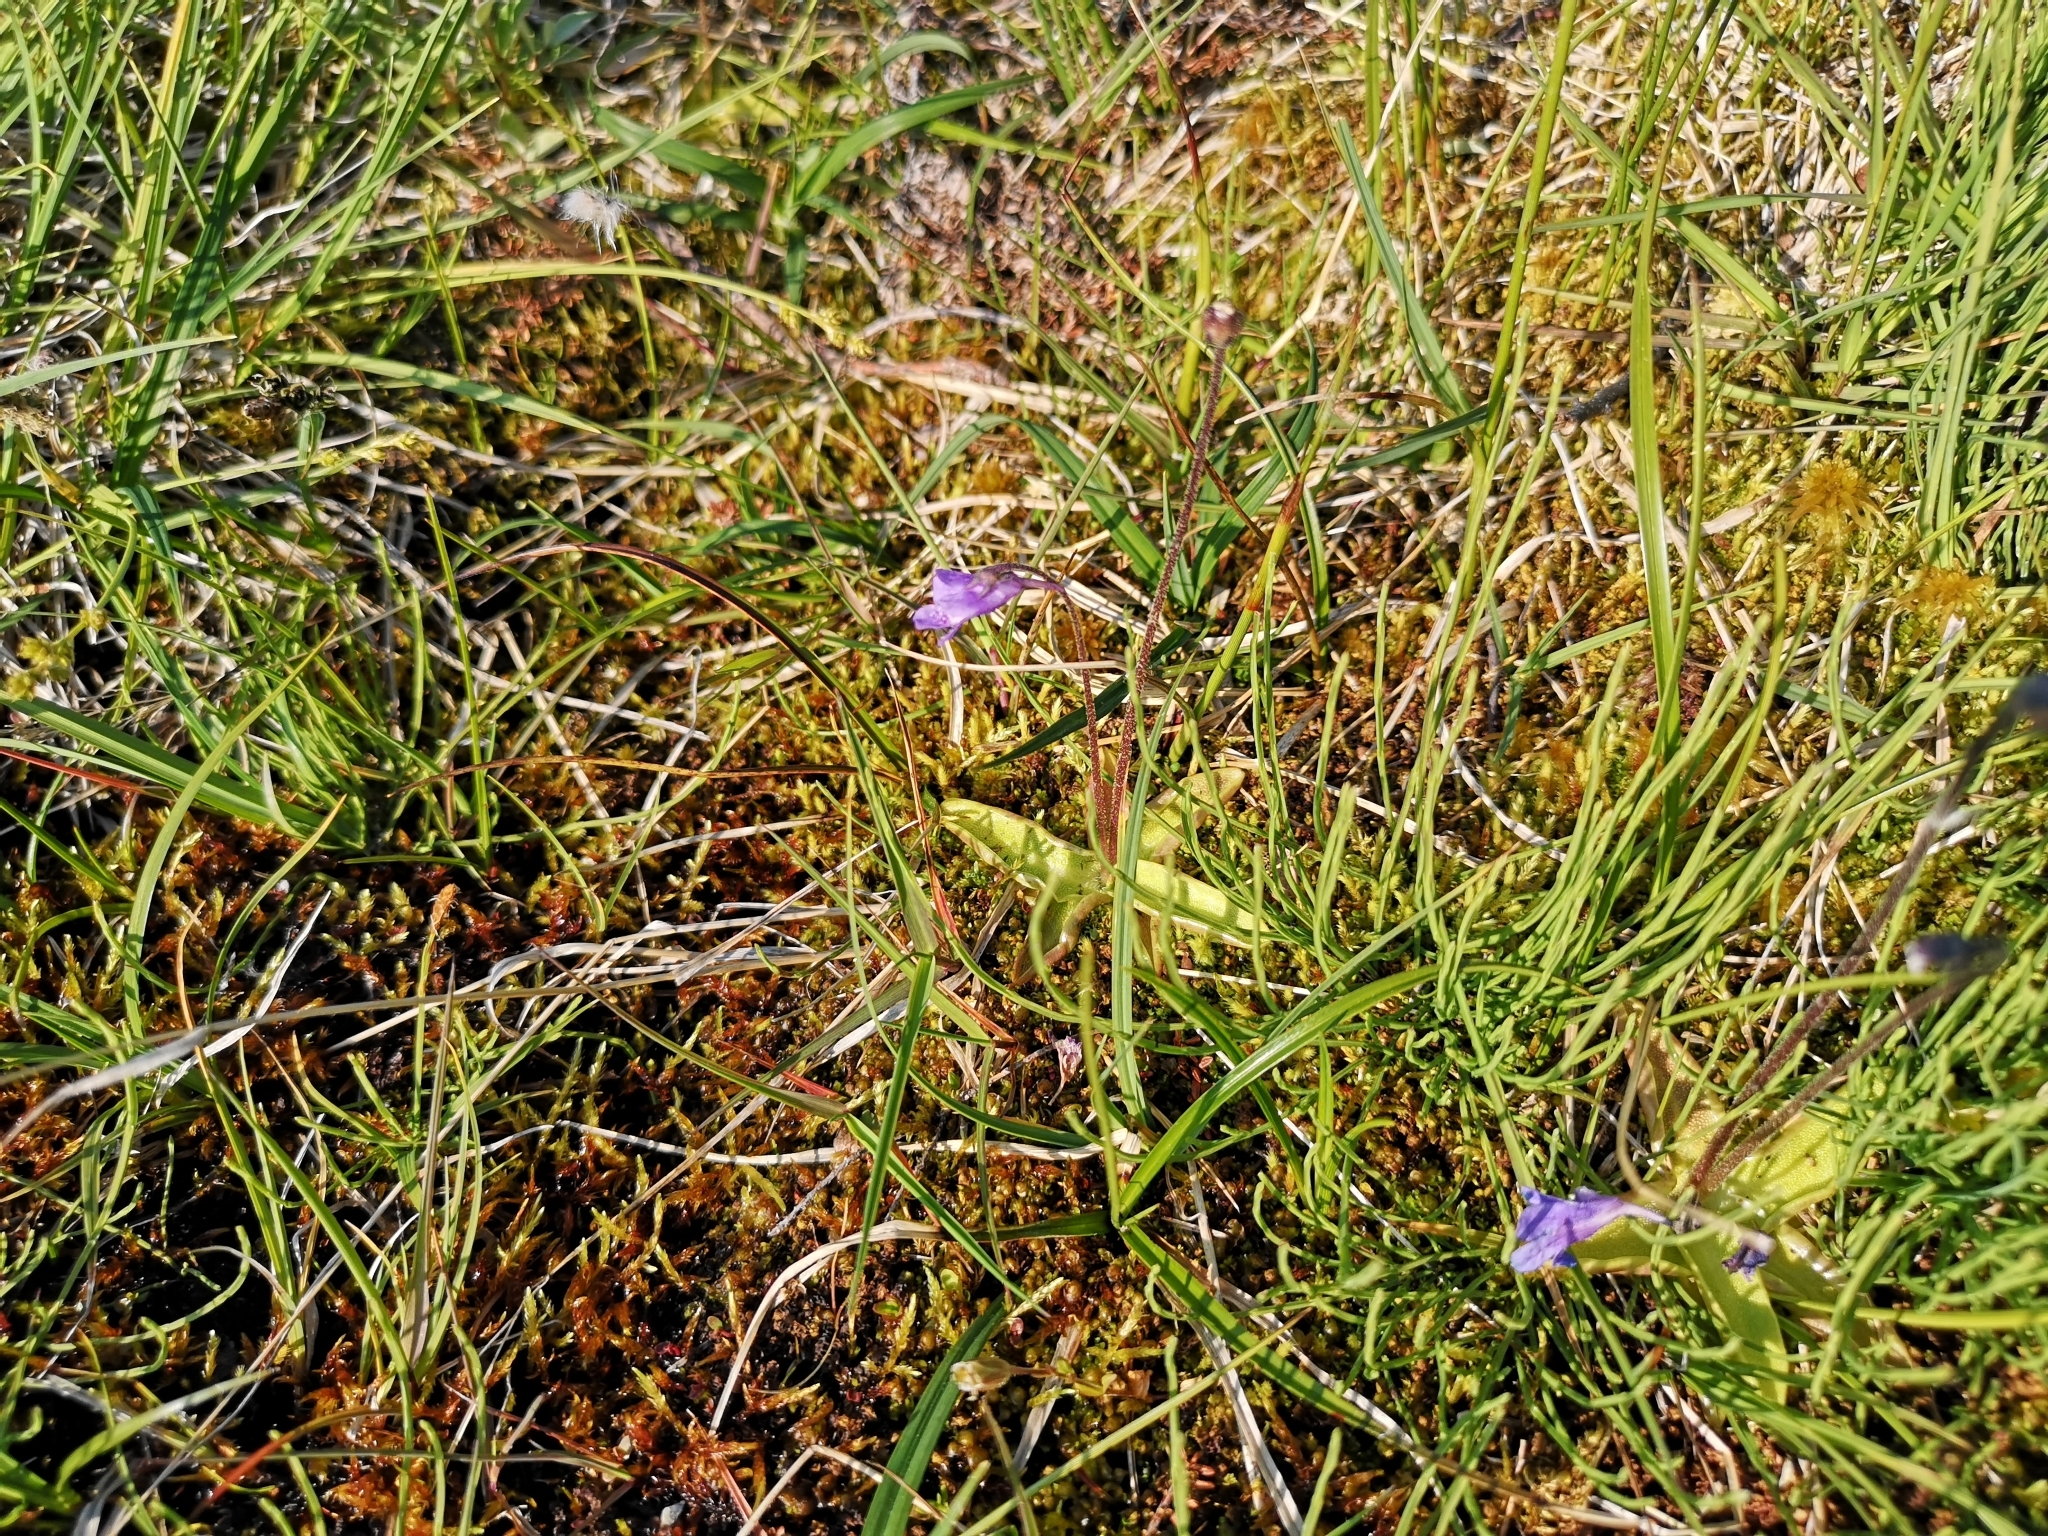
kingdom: Plantae
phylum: Tracheophyta
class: Magnoliopsida
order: Lamiales
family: Lentibulariaceae
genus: Pinguicula
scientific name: Pinguicula vulgaris
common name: Common butterwort
